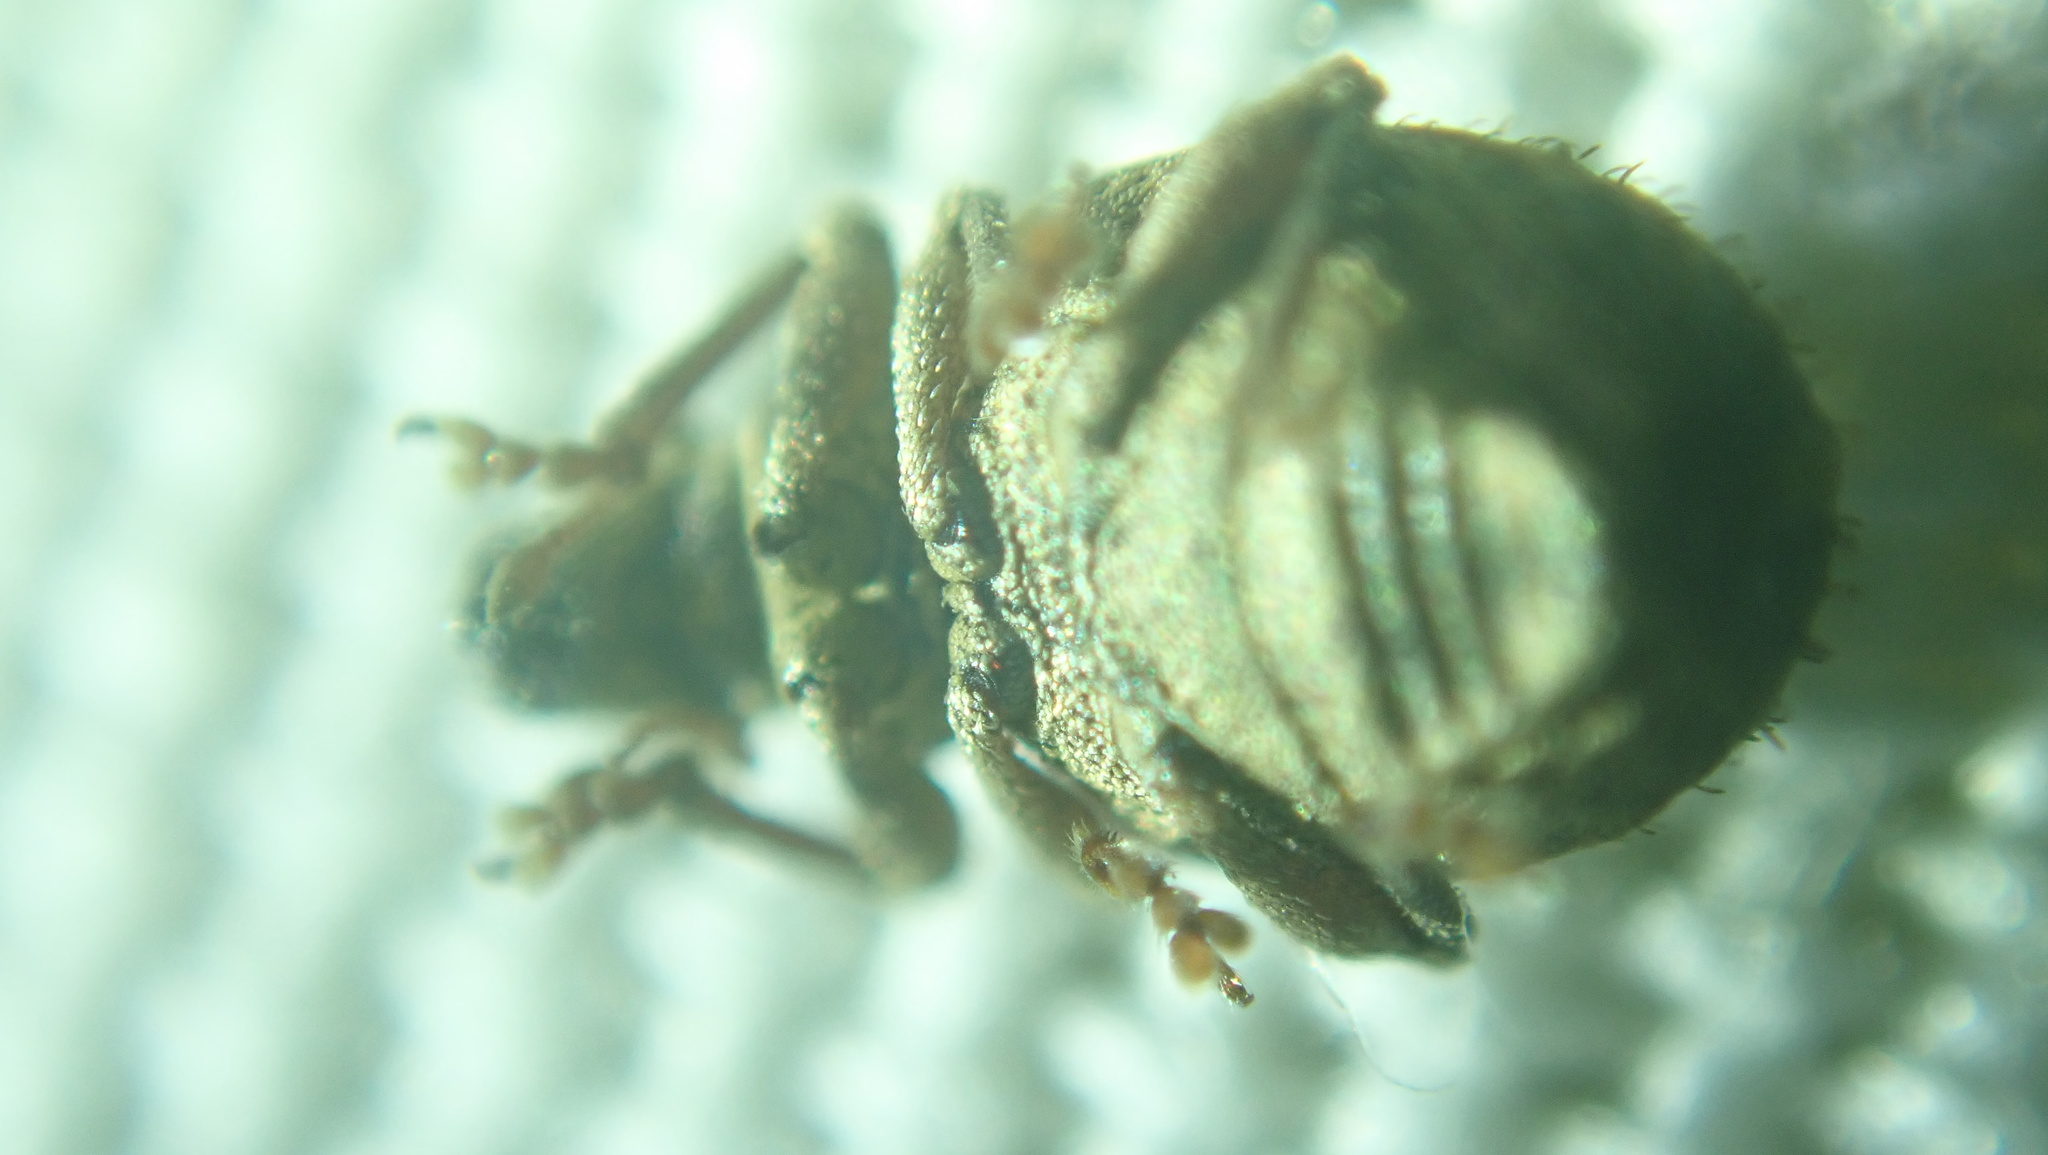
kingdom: Animalia
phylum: Arthropoda
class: Insecta
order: Coleoptera
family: Curculionidae
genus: Strophosoma
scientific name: Strophosoma melanogrammum
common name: Weevil
